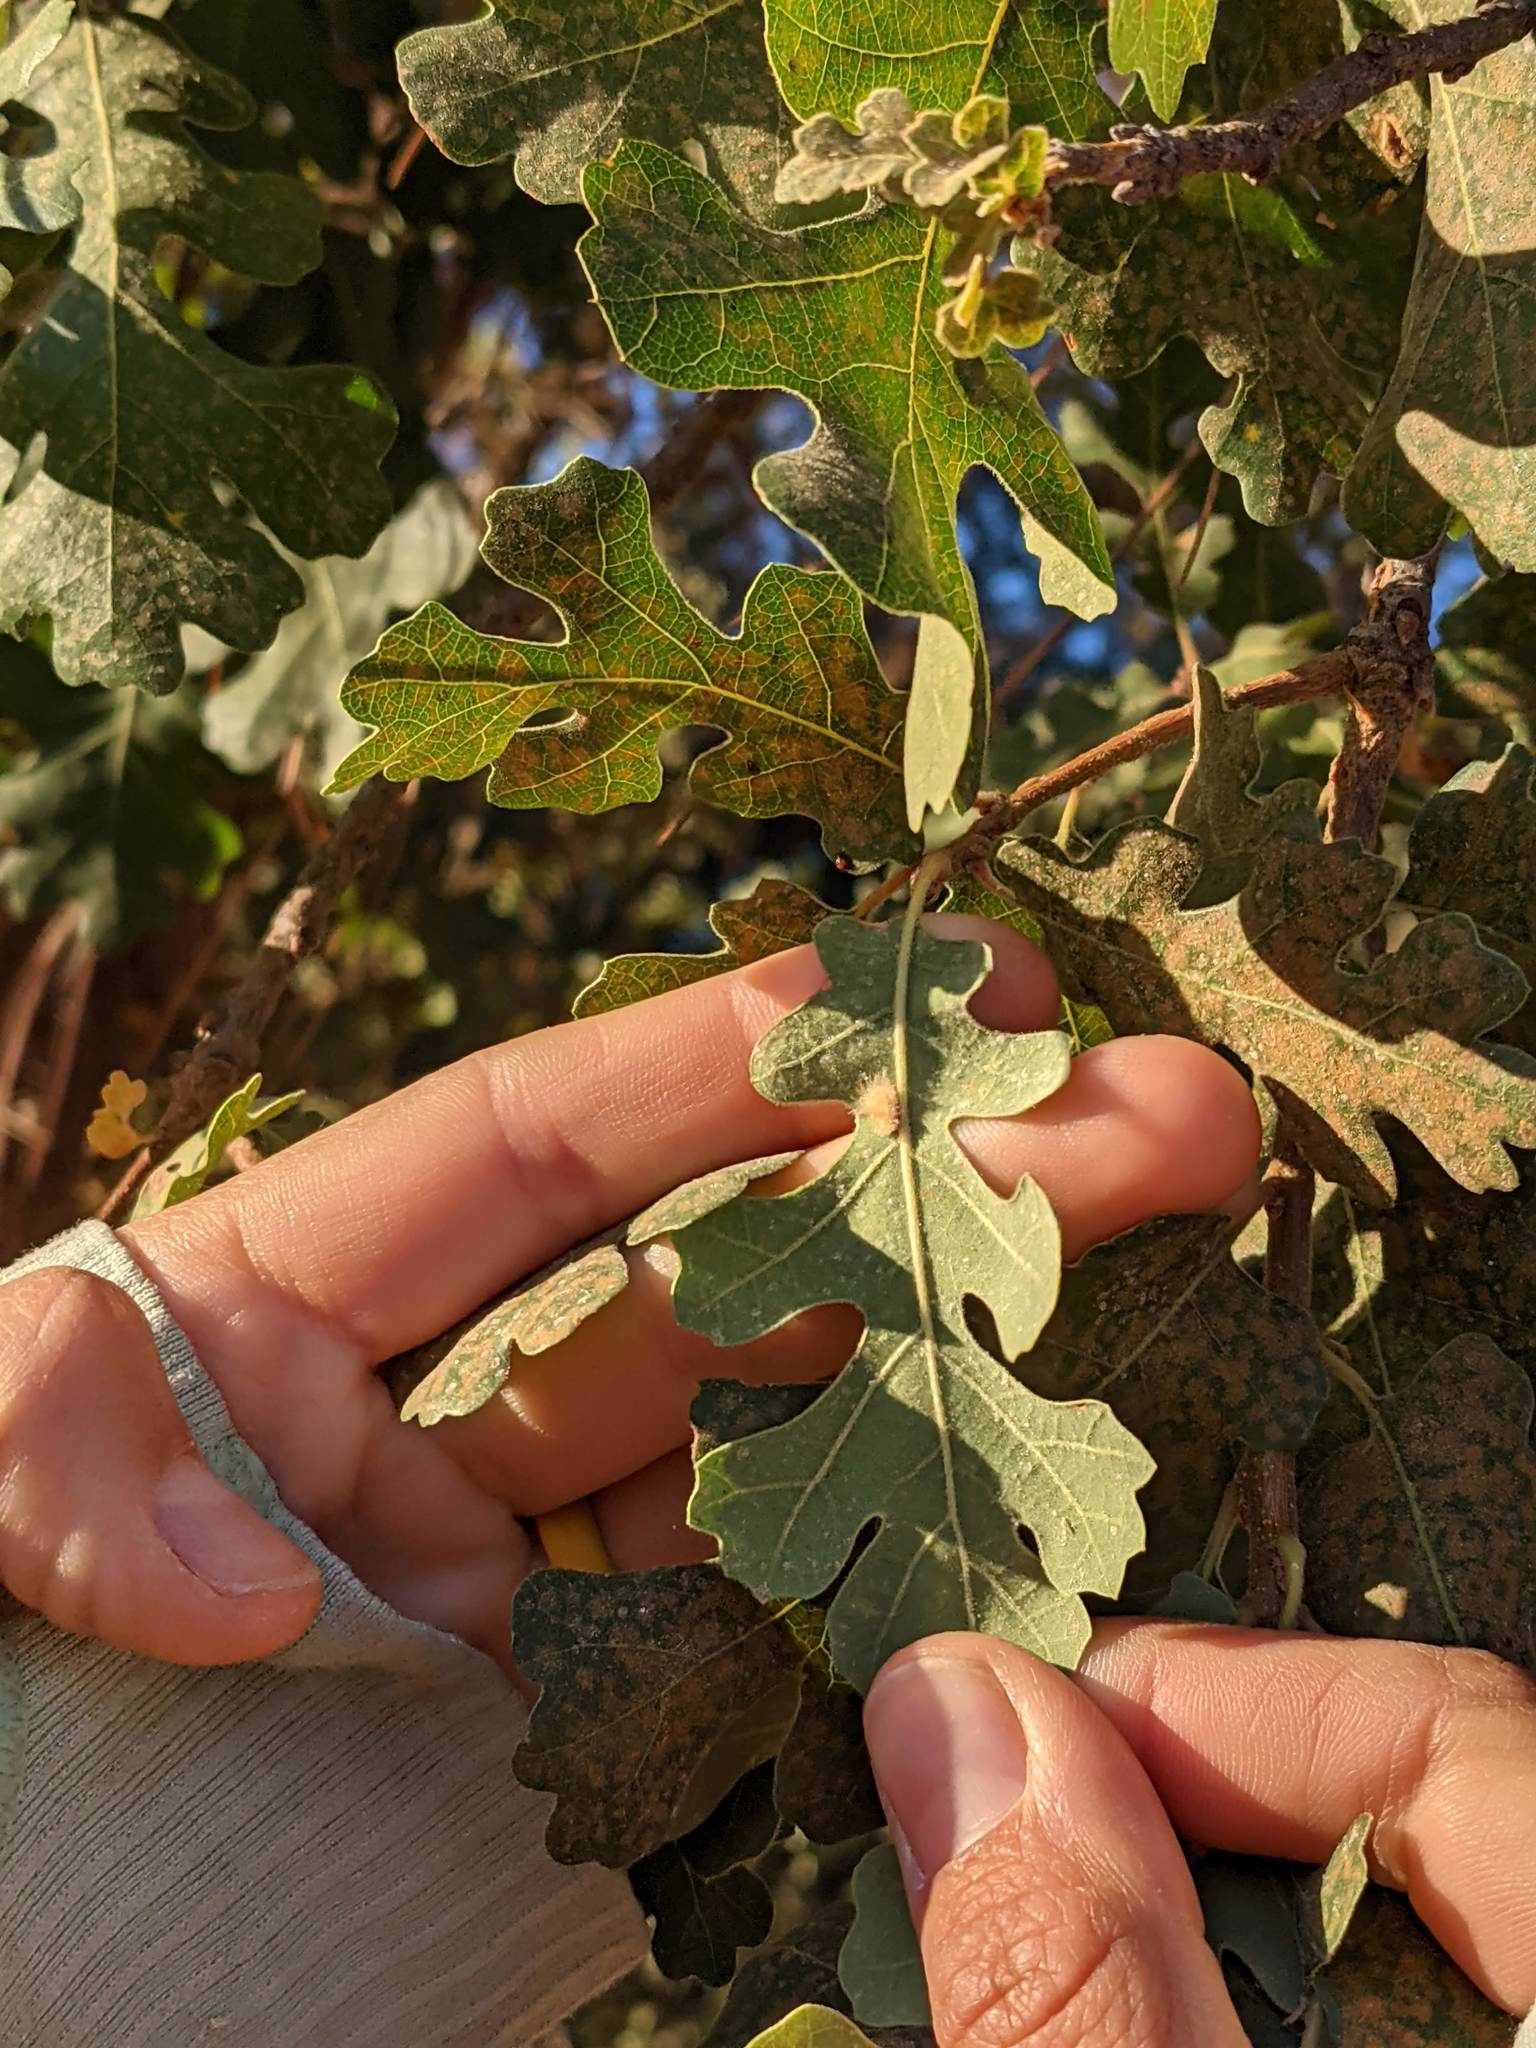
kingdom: Animalia
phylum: Arthropoda
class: Insecta
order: Hymenoptera
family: Cynipidae
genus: Andricus
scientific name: Andricus Druon fullawayi
